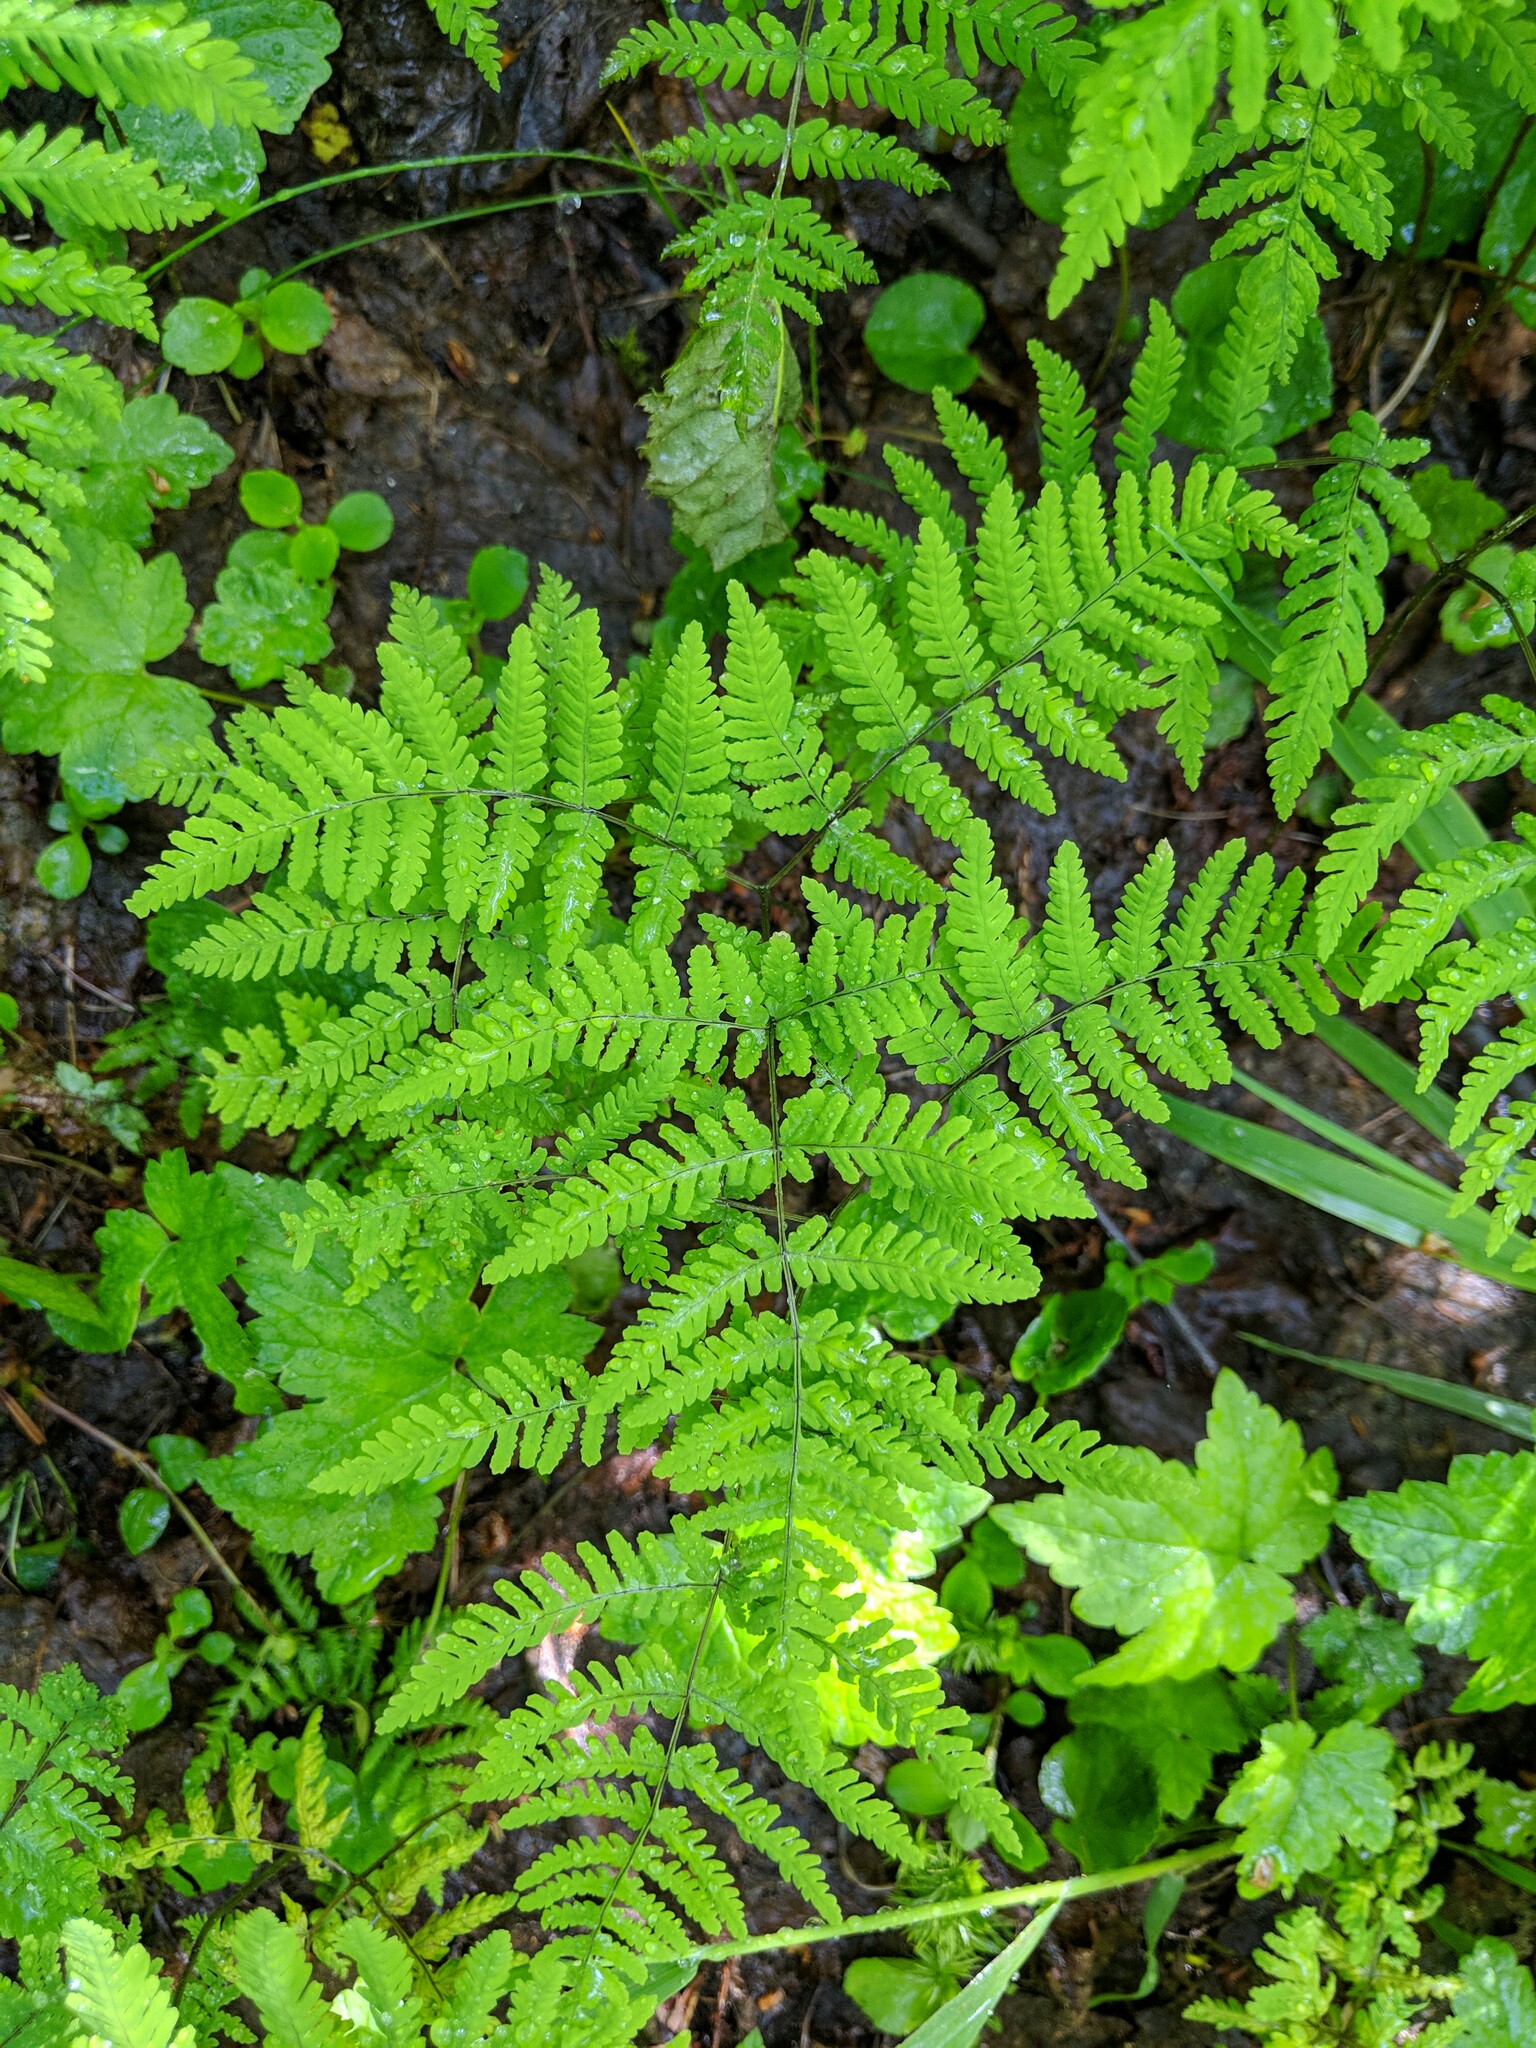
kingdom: Plantae
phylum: Tracheophyta
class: Polypodiopsida
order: Polypodiales
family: Cystopteridaceae
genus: Gymnocarpium
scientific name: Gymnocarpium disjunctum
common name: Western oak fern
